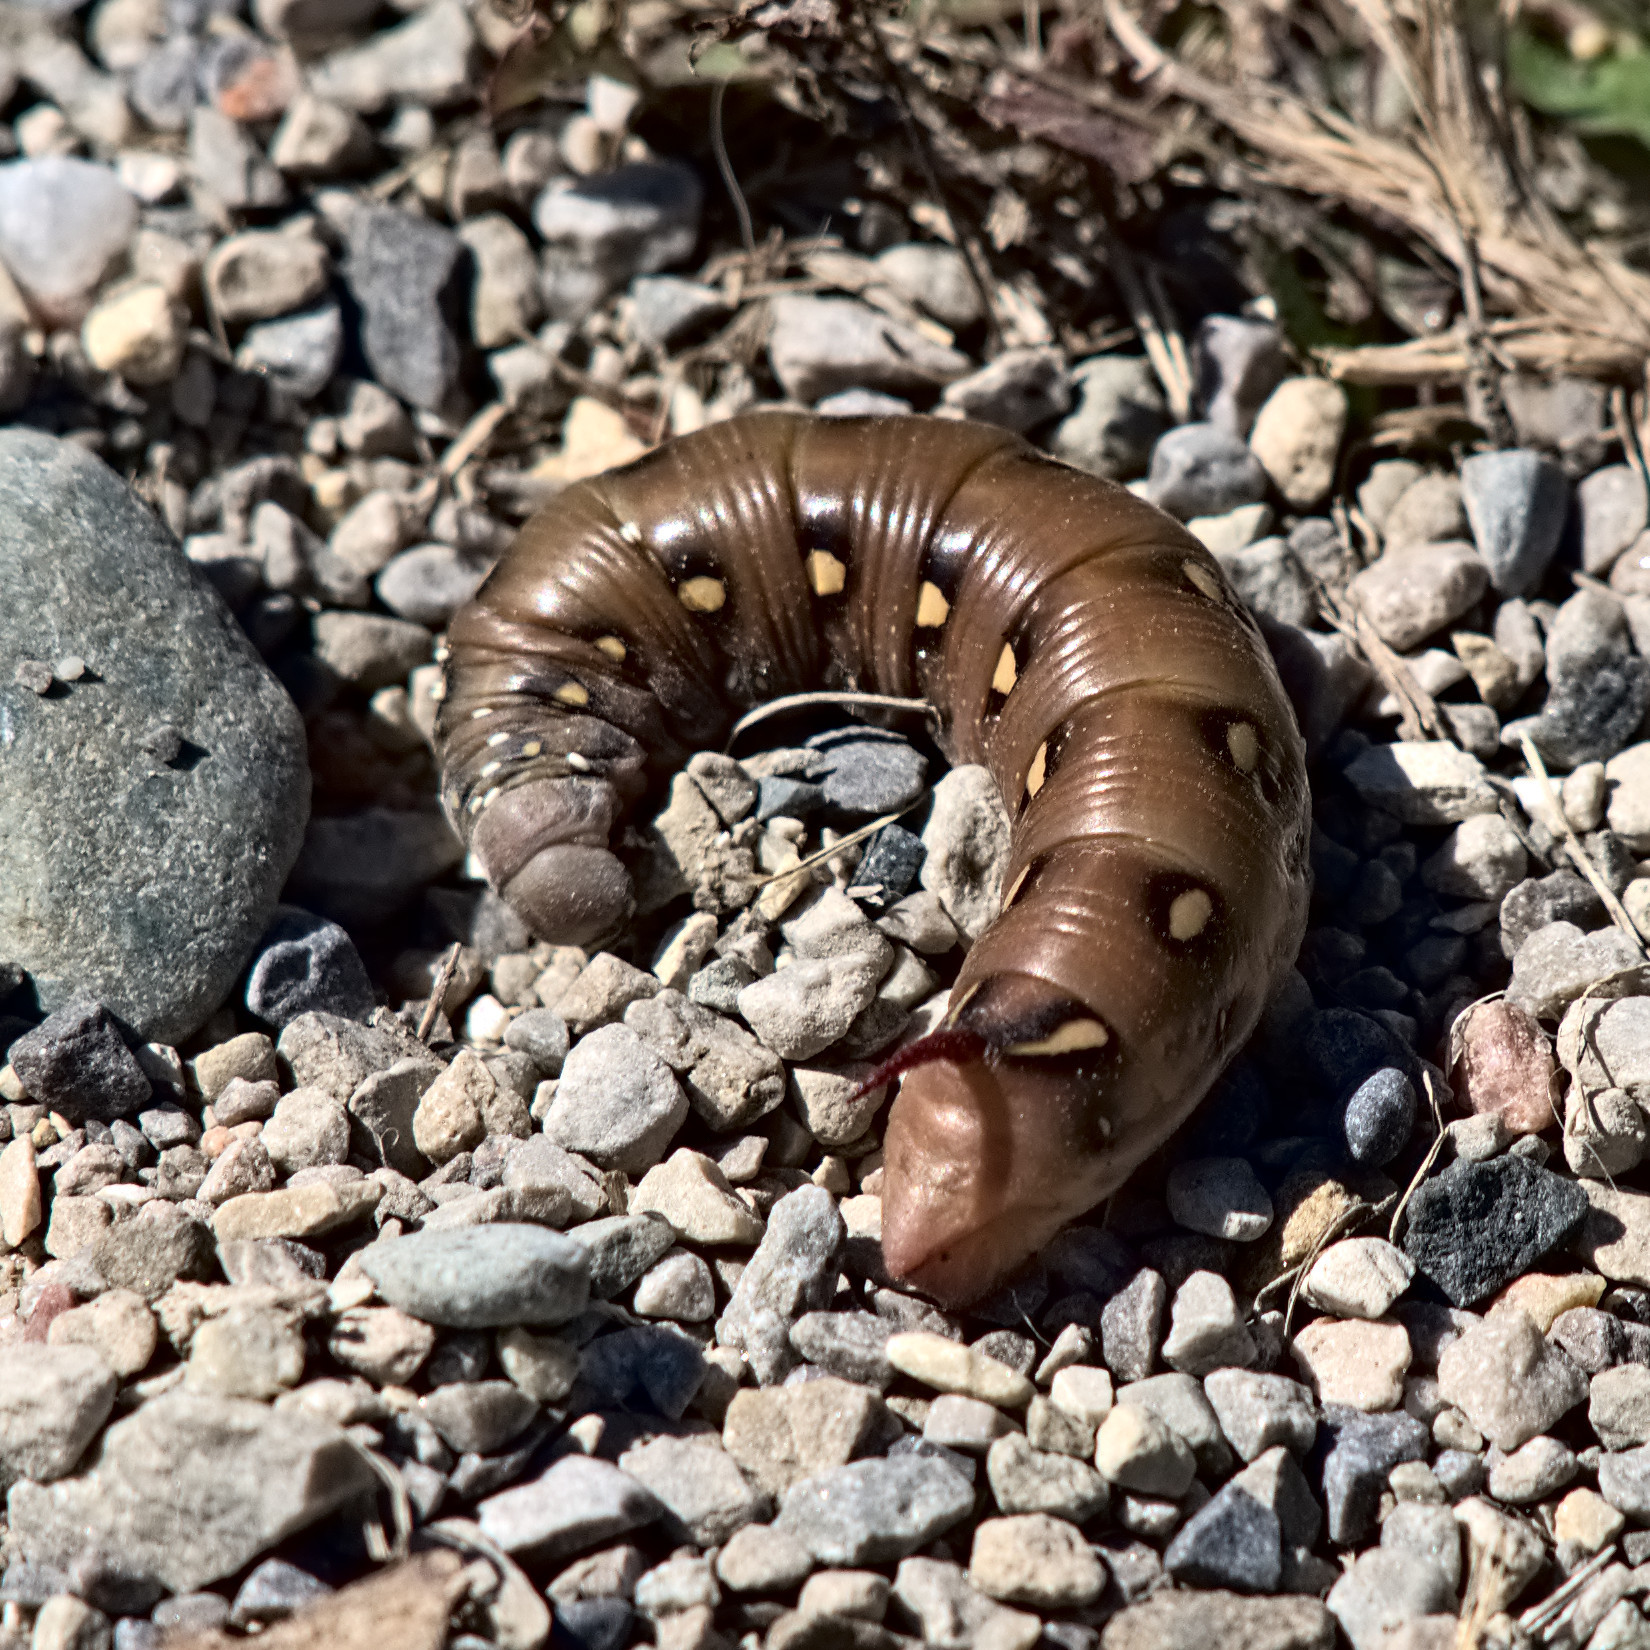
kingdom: Animalia
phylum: Arthropoda
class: Insecta
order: Lepidoptera
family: Sphingidae
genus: Hyles
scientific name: Hyles gallii
